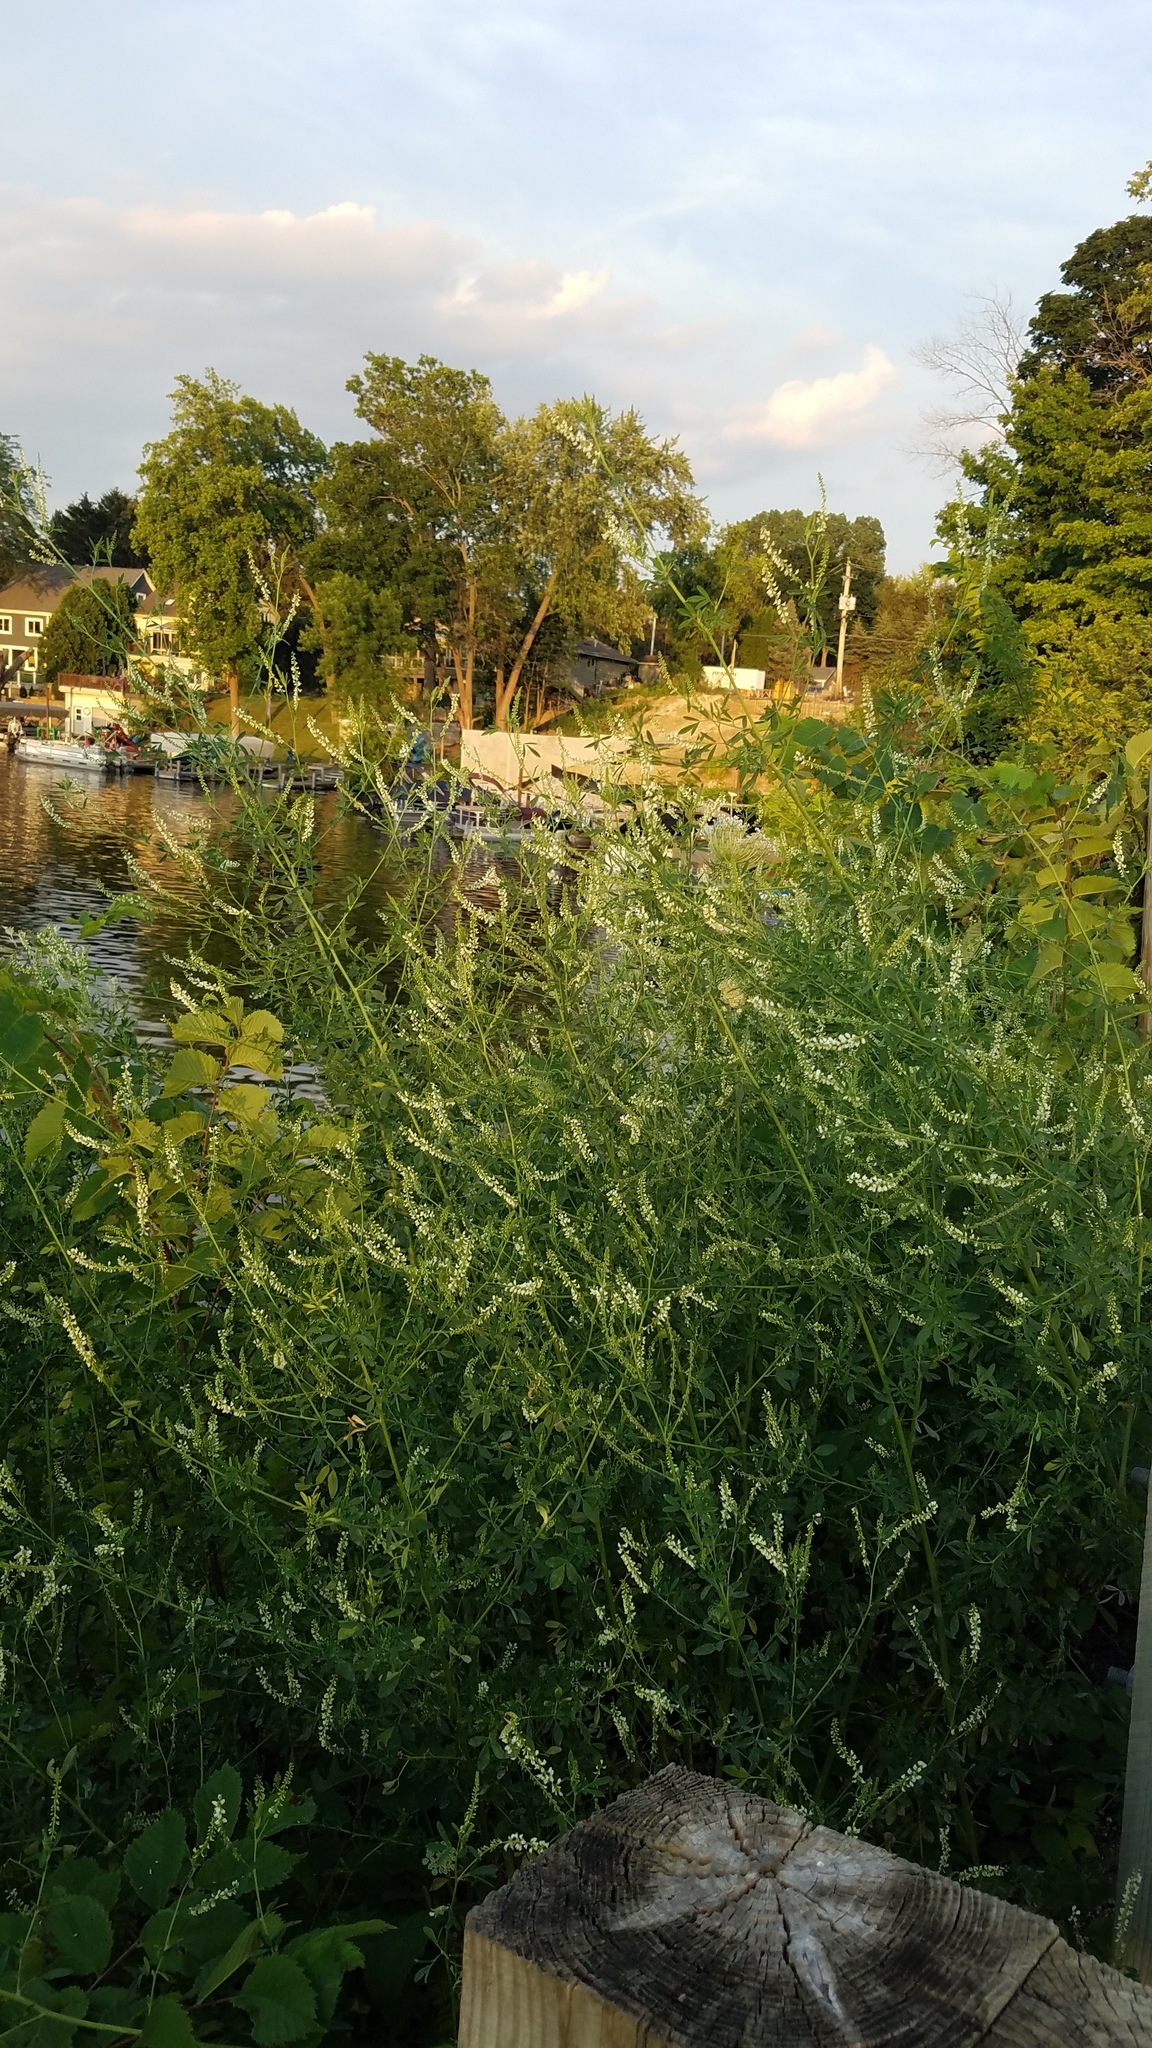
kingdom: Plantae
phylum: Tracheophyta
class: Magnoliopsida
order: Fabales
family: Fabaceae
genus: Melilotus
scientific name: Melilotus albus
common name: White melilot
